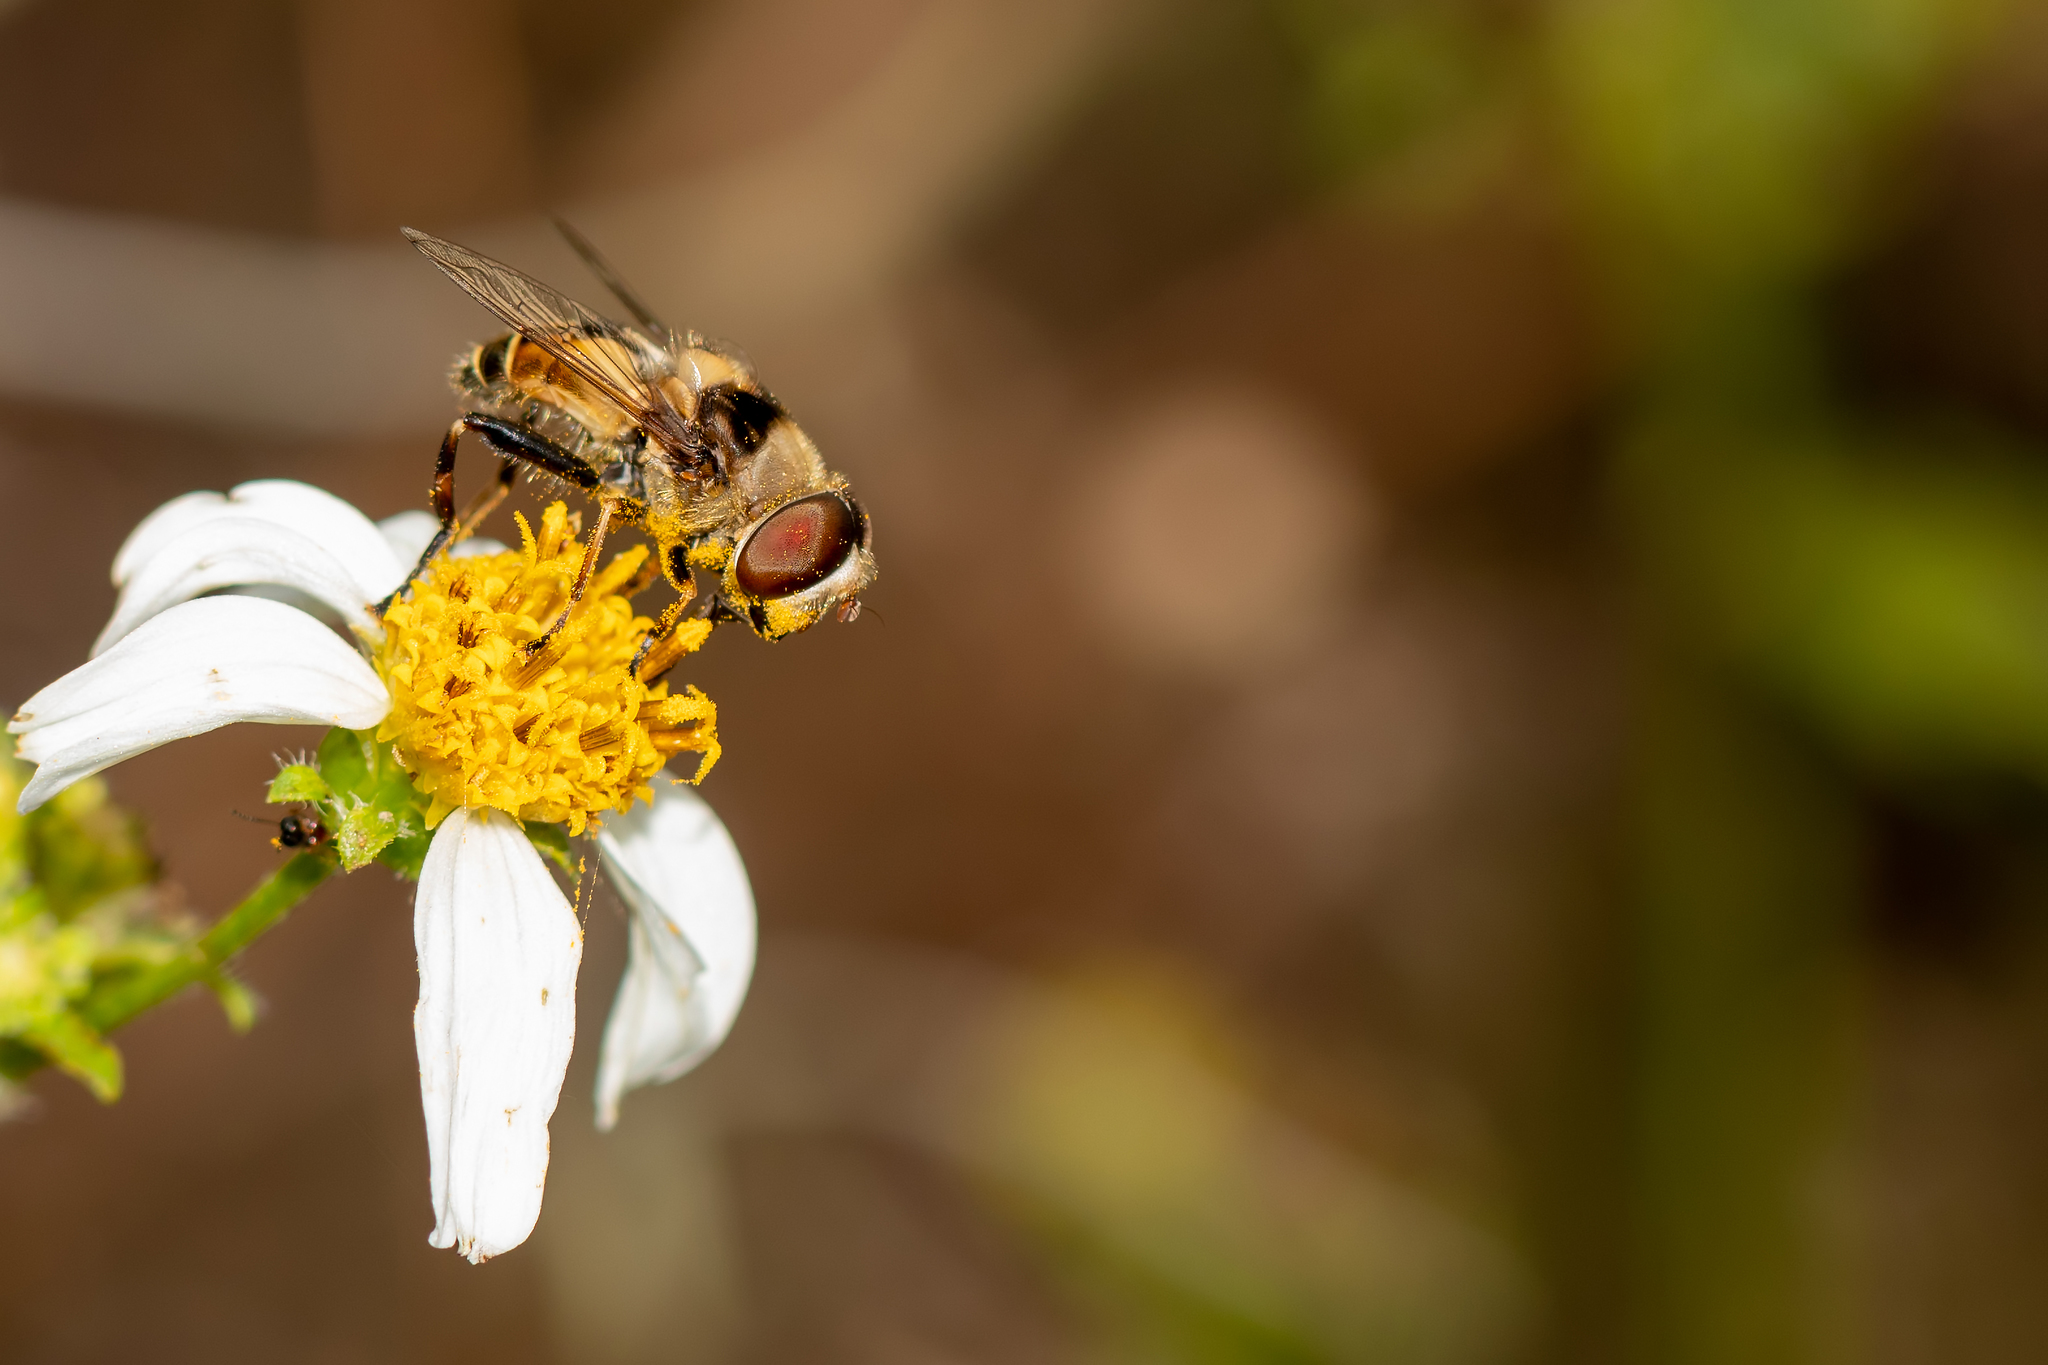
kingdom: Animalia
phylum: Arthropoda
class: Insecta
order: Diptera
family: Syrphidae
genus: Palpada
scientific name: Palpada pusilla
